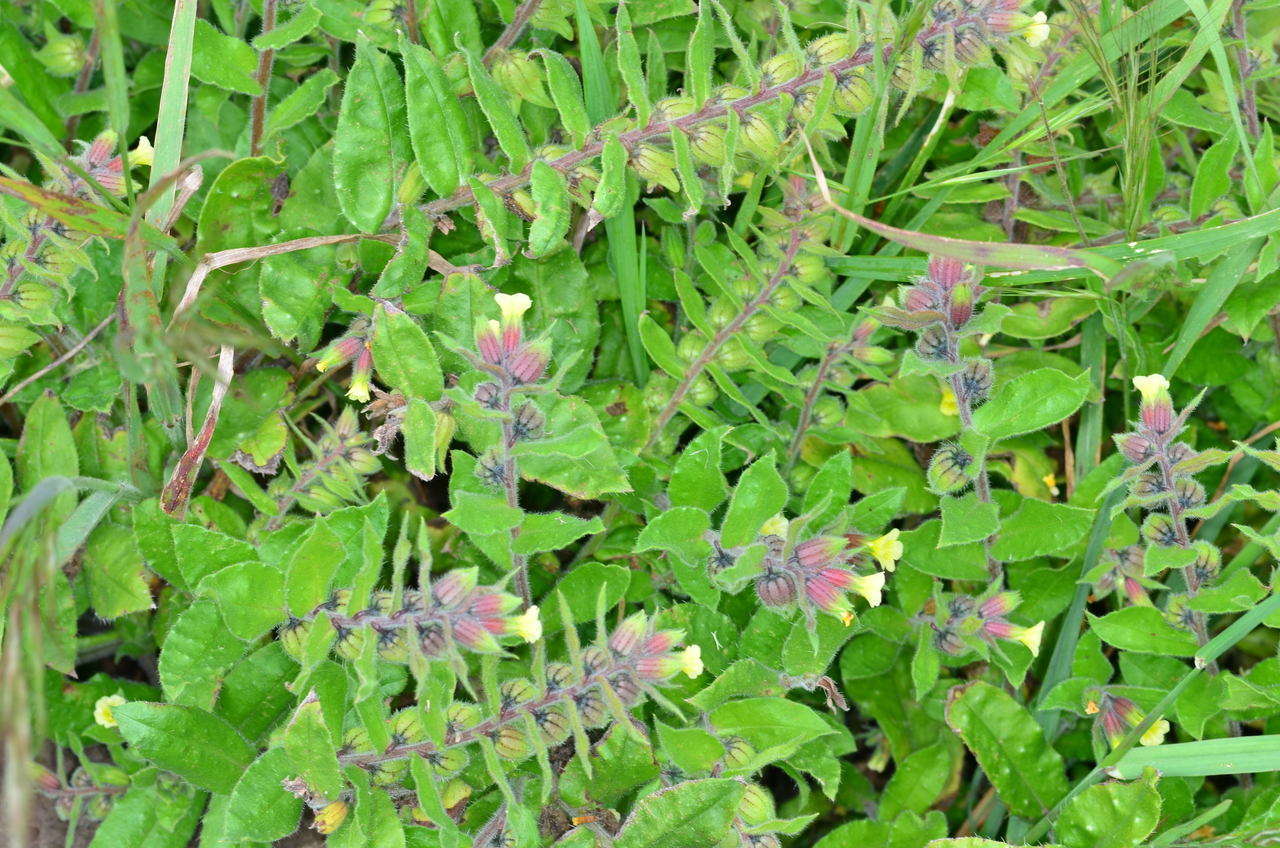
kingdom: Plantae
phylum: Tracheophyta
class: Magnoliopsida
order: Boraginales
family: Boraginaceae
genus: Nonea
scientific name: Nonea lutea
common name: Yellow nonea
